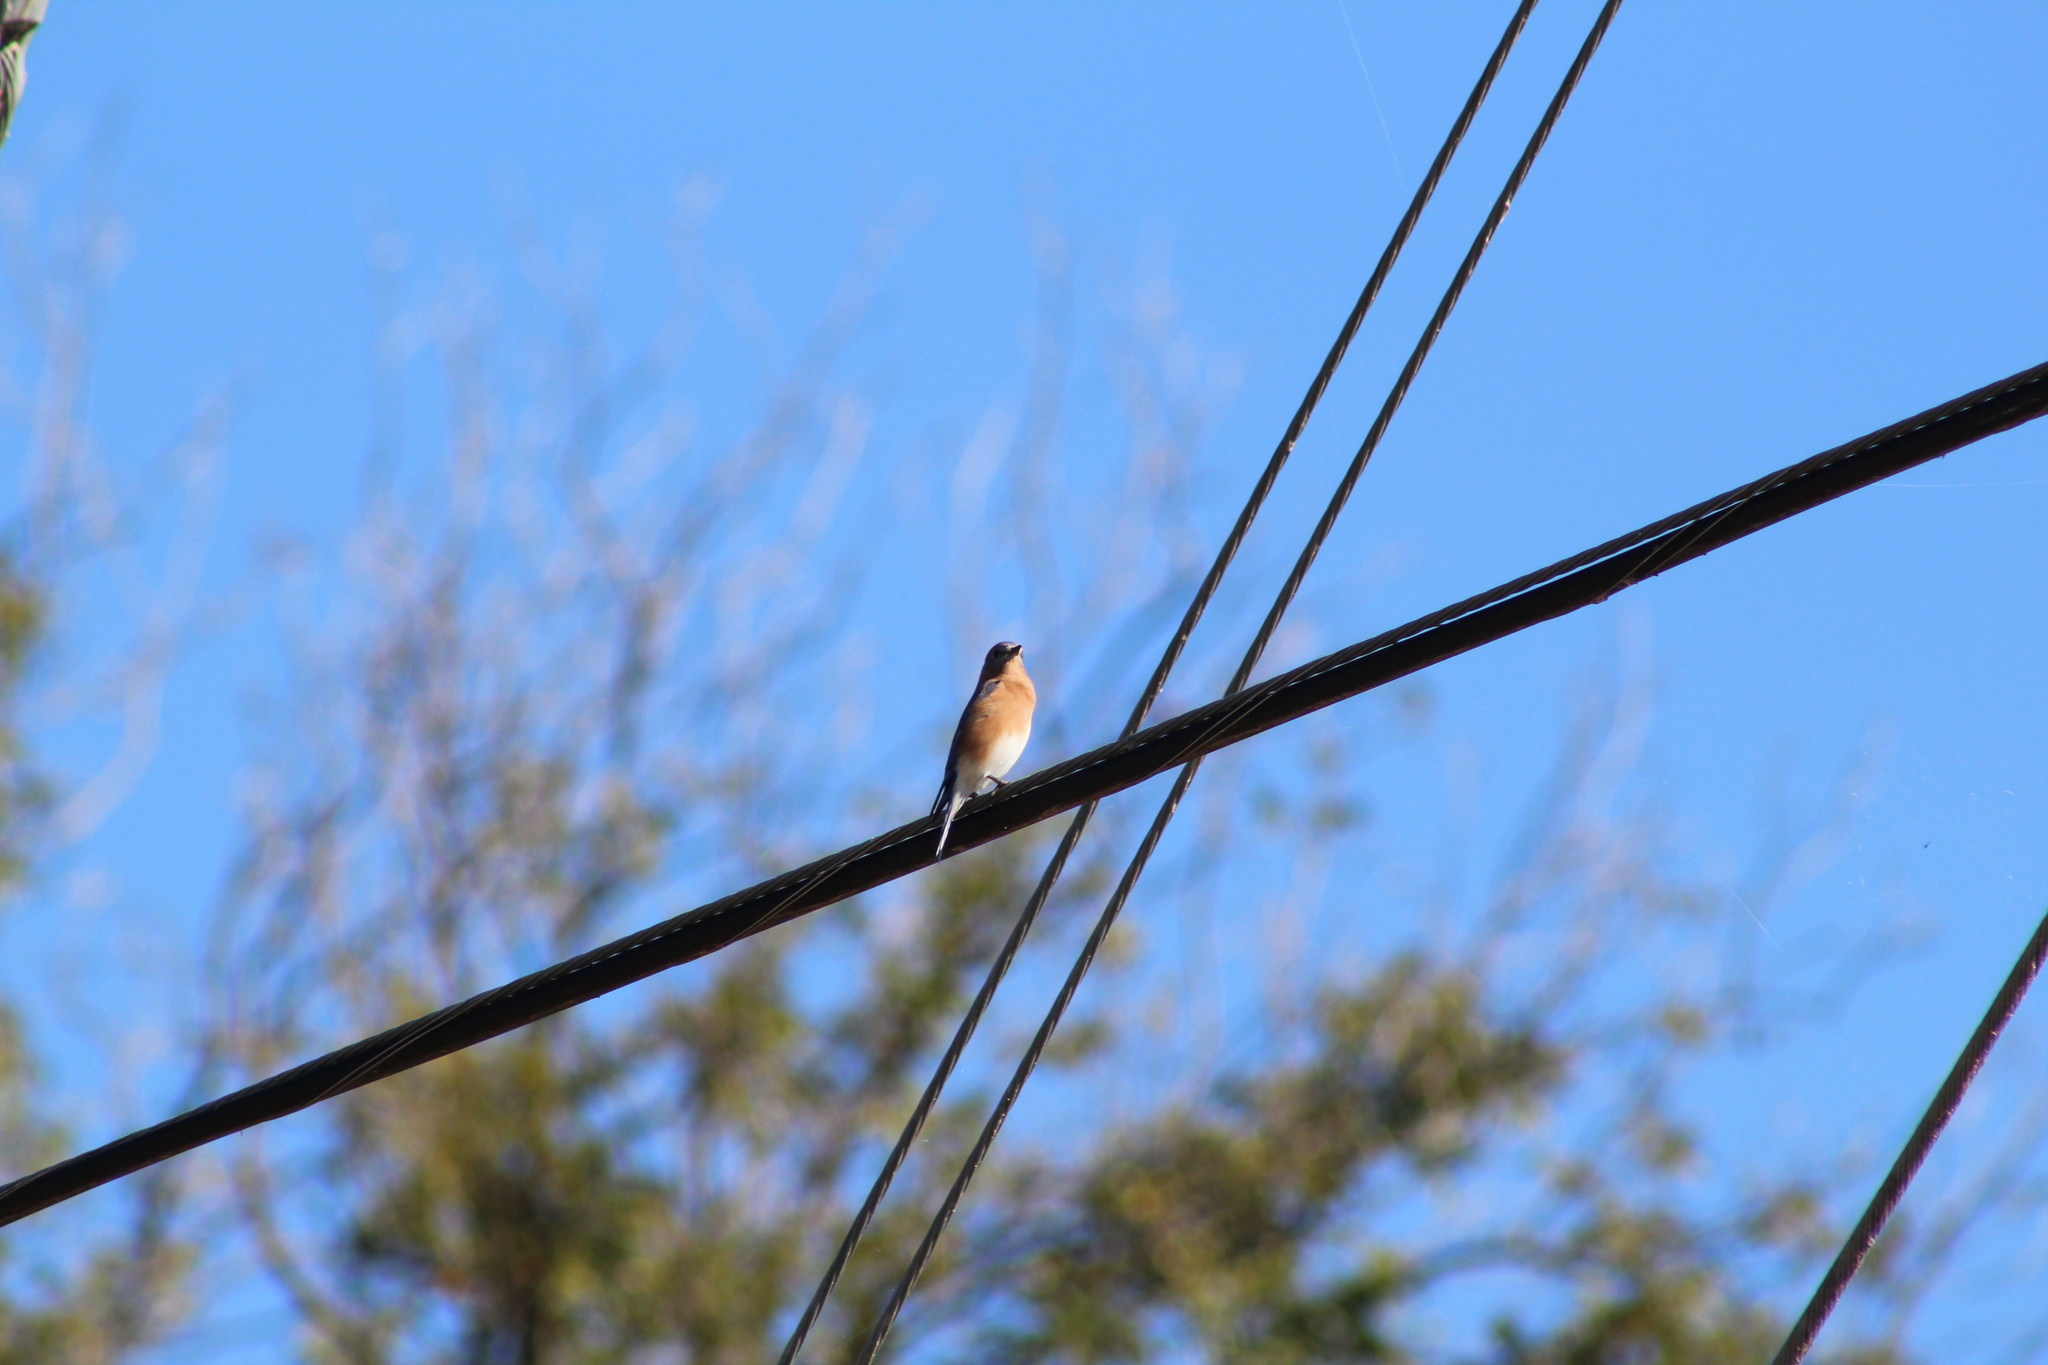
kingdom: Animalia
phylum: Chordata
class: Aves
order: Passeriformes
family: Turdidae
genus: Sialia
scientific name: Sialia sialis
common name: Eastern bluebird
